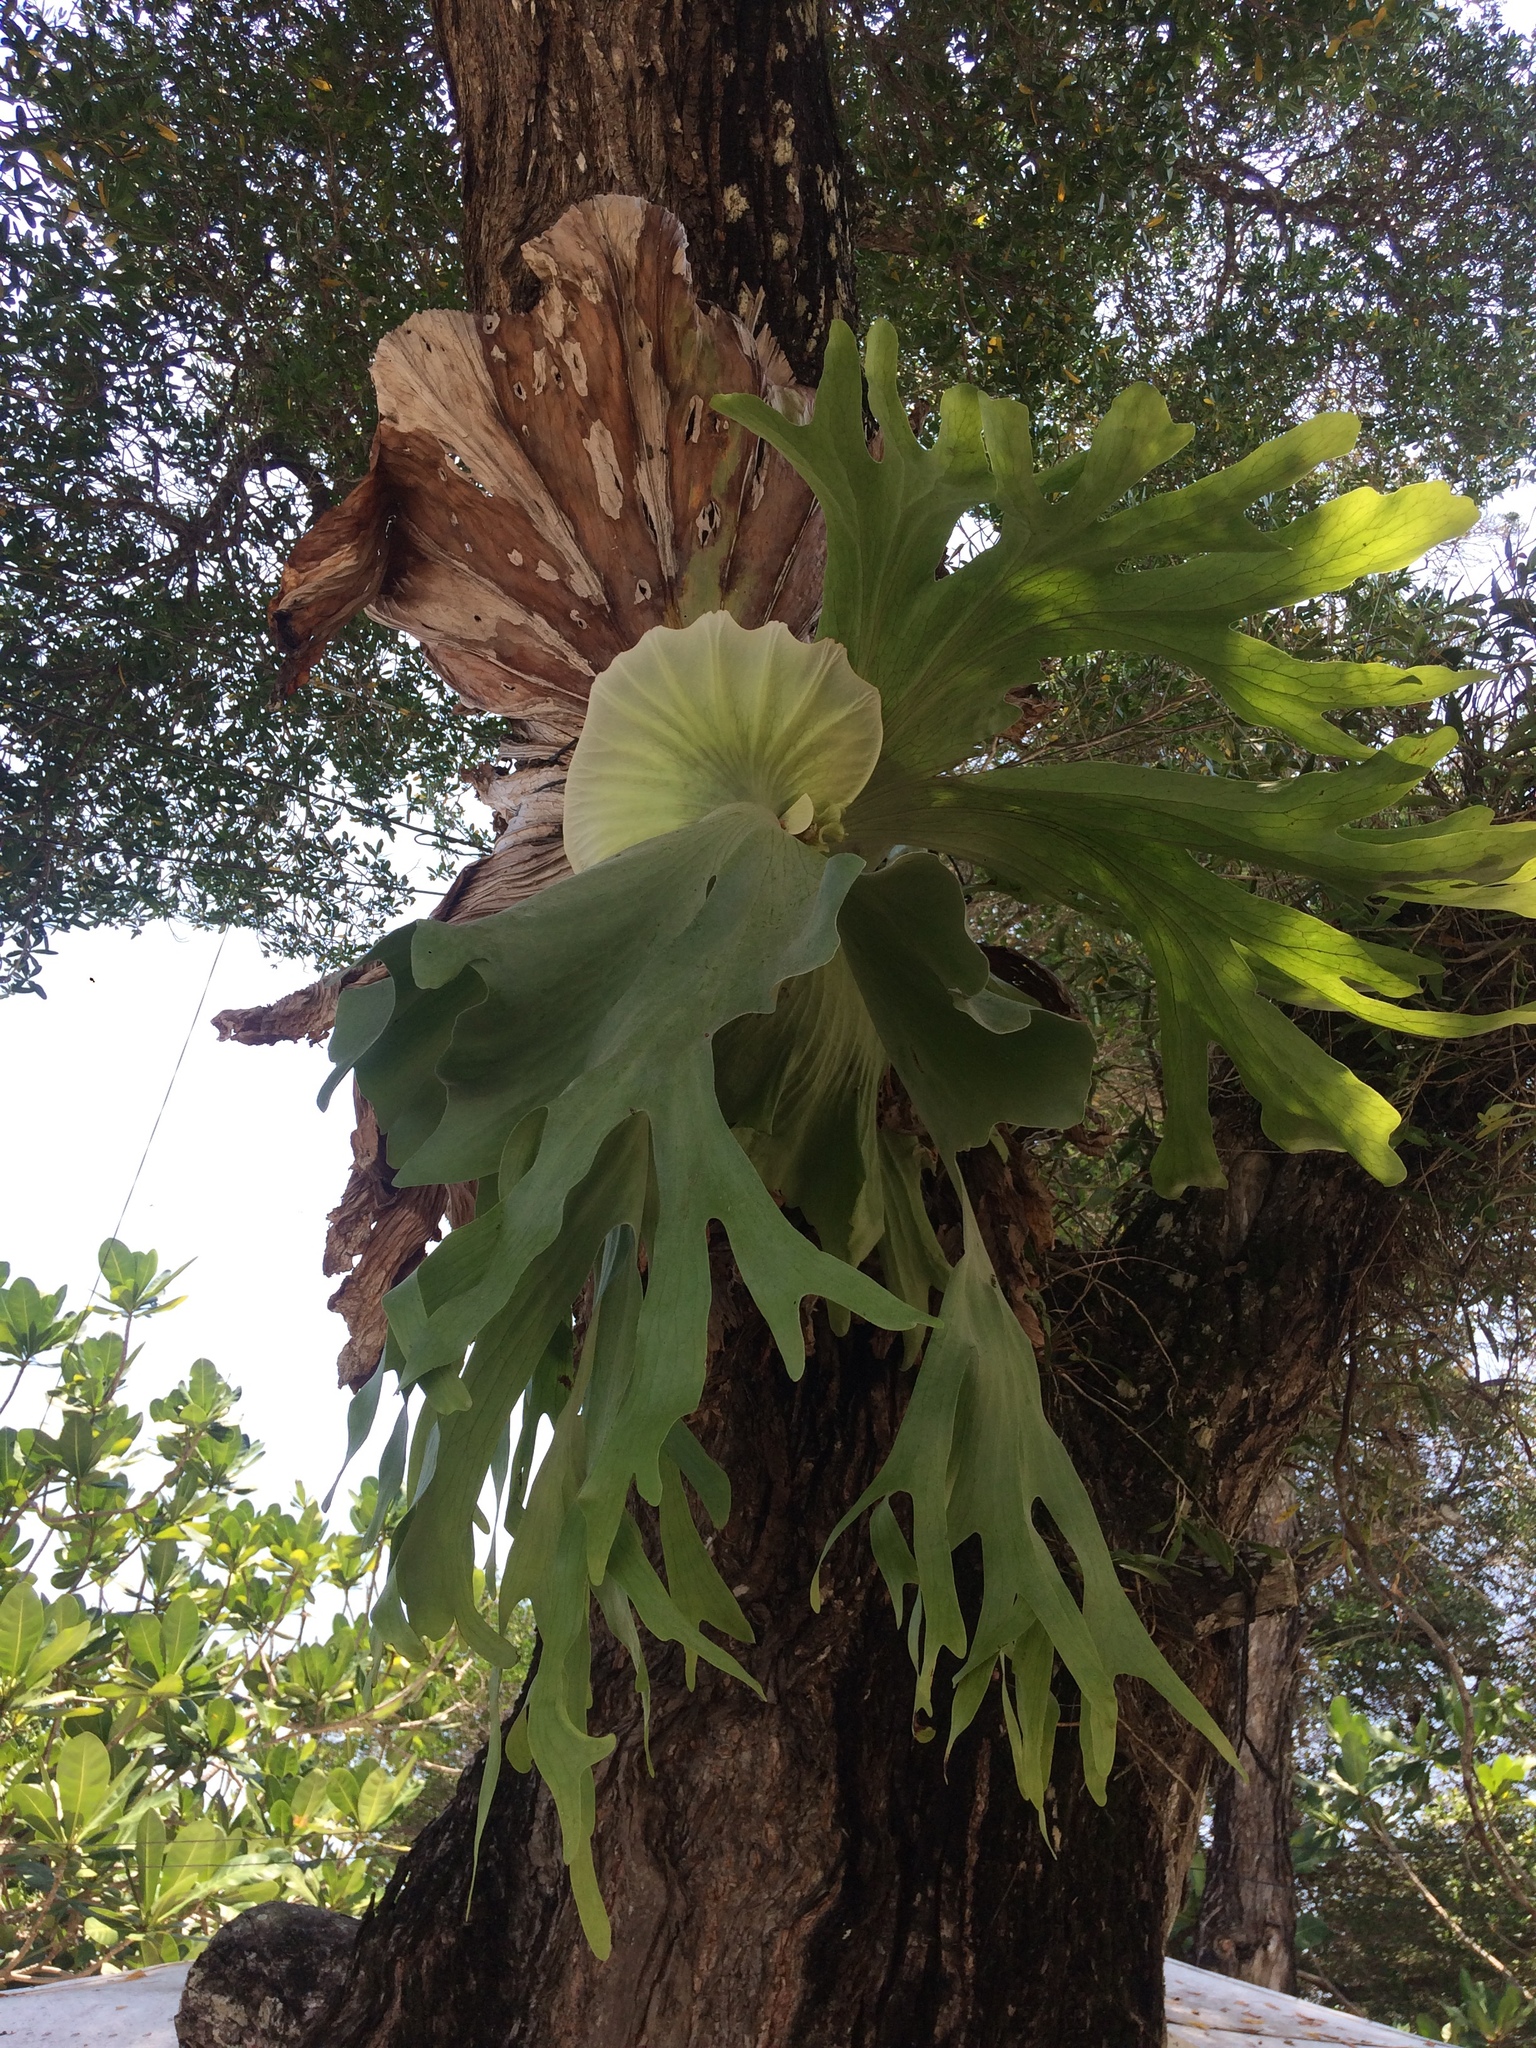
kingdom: Plantae
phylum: Tracheophyta
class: Polypodiopsida
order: Polypodiales
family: Polypodiaceae
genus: Platycerium
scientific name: Platycerium grande
